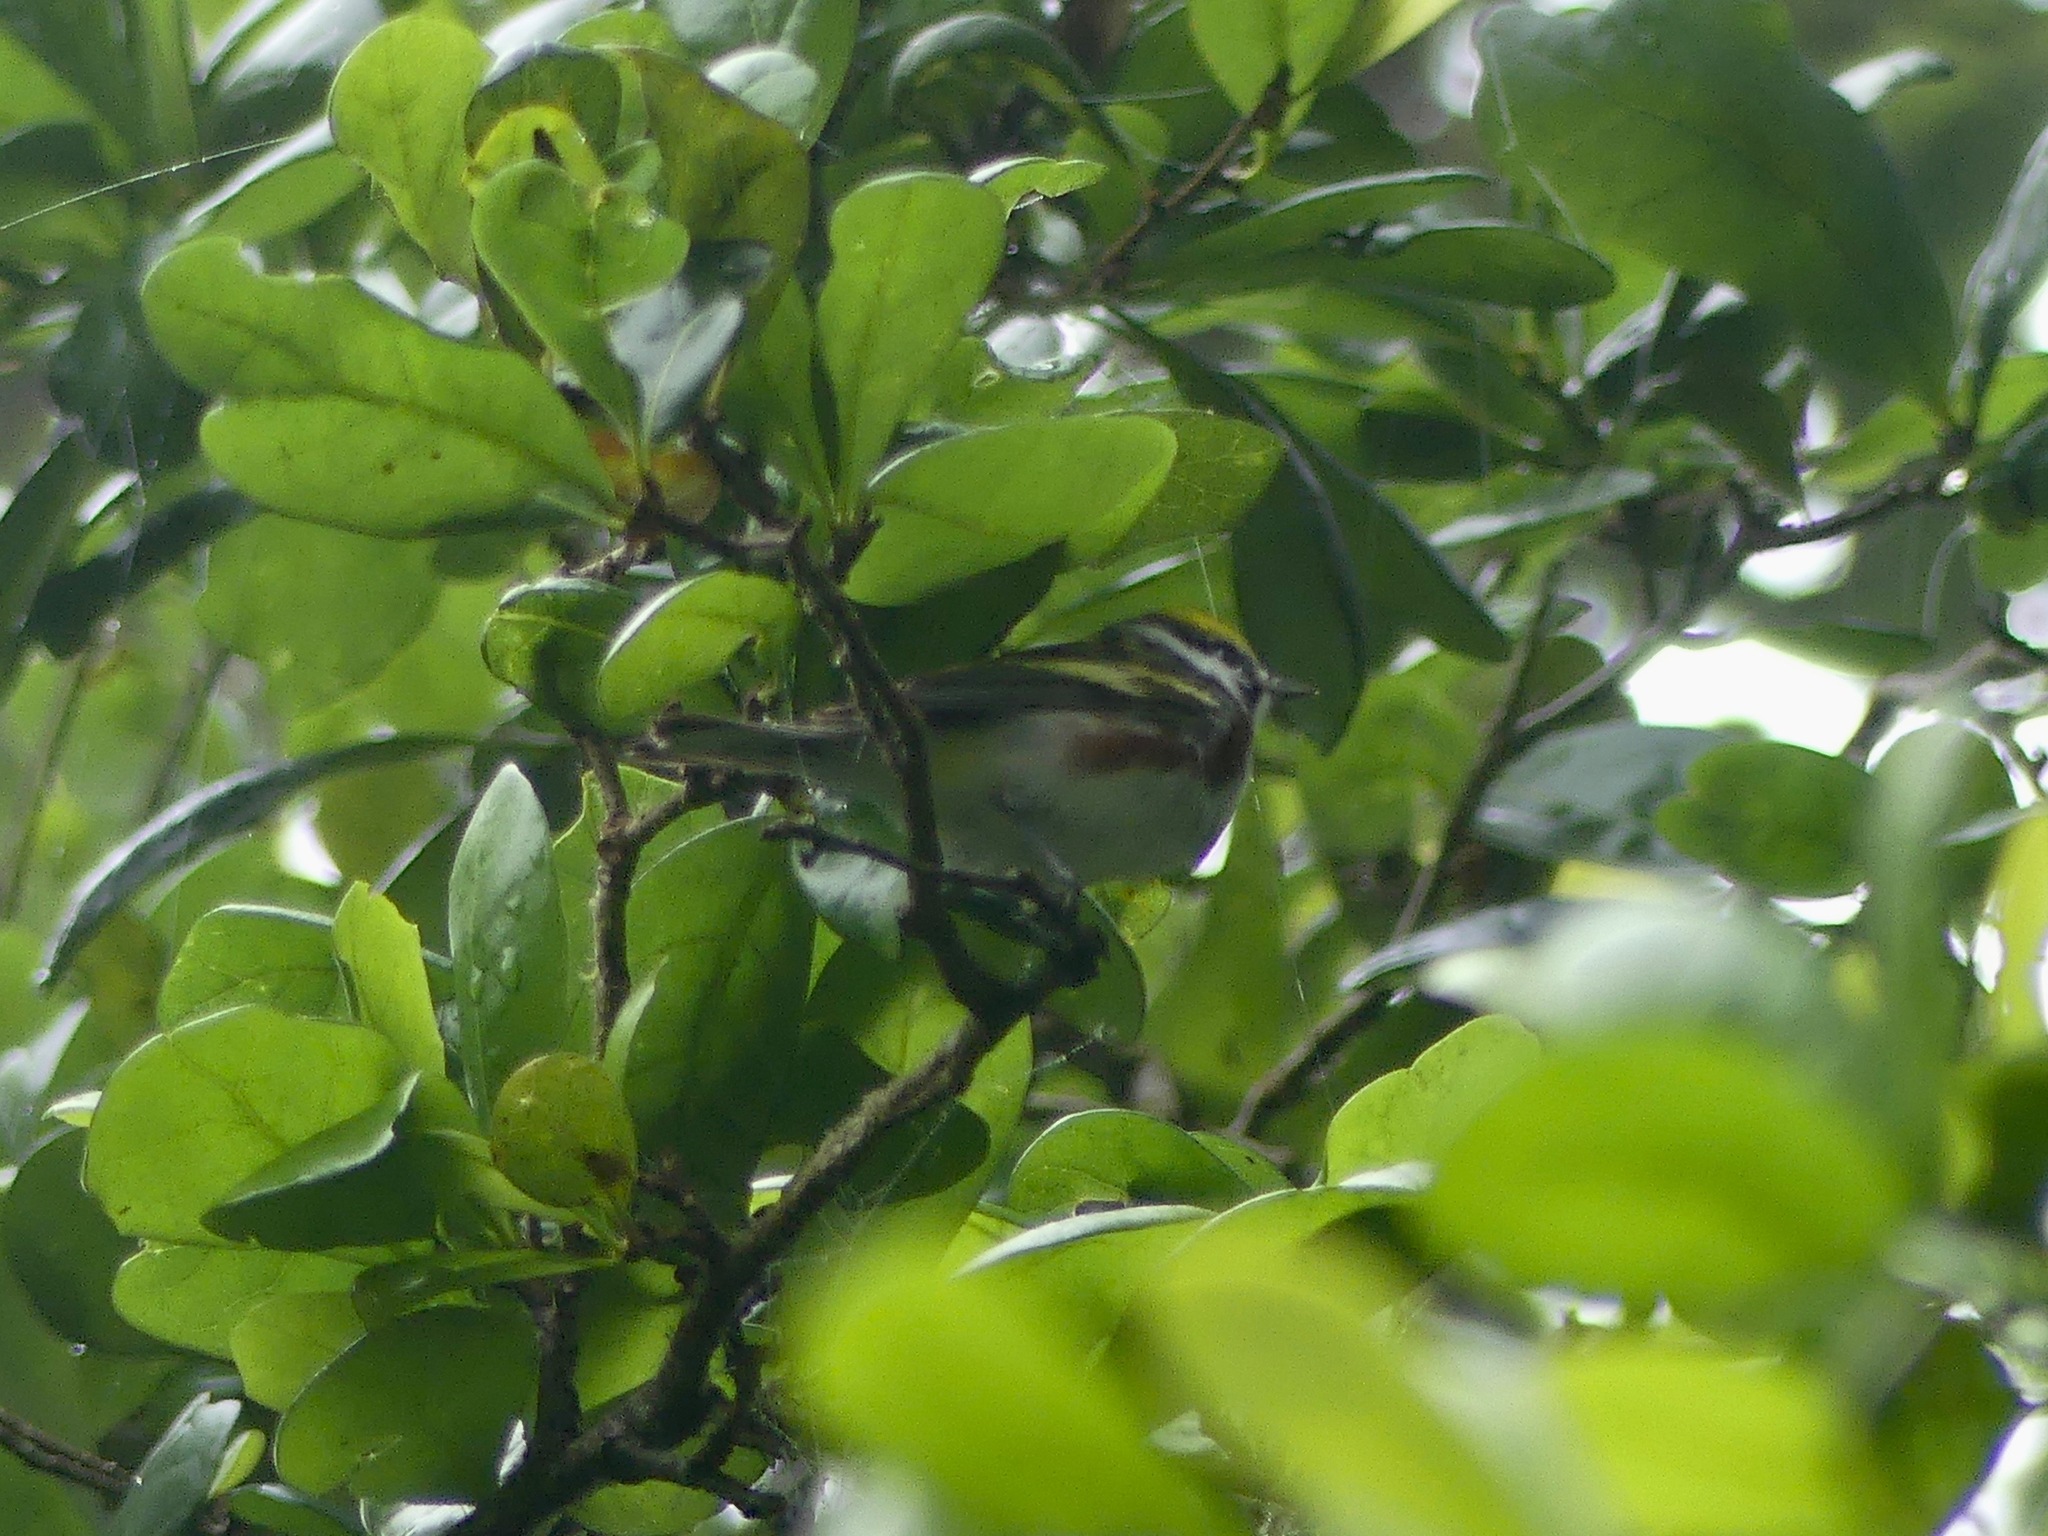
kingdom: Animalia
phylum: Chordata
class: Aves
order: Passeriformes
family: Parulidae
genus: Setophaga
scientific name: Setophaga pensylvanica
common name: Chestnut-sided warbler
